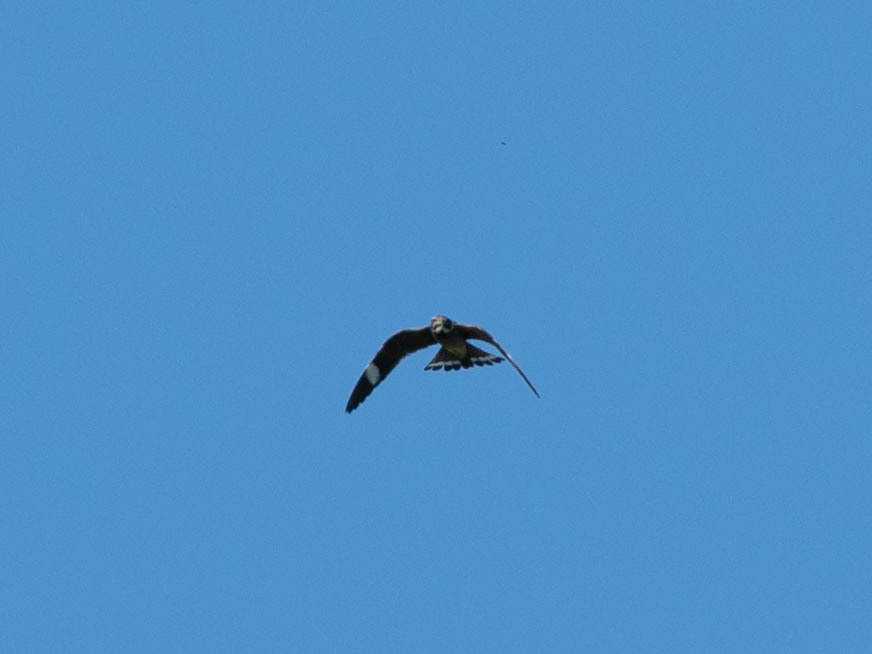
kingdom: Animalia
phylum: Chordata
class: Aves
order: Caprimulgiformes
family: Caprimulgidae
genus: Chordeiles
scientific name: Chordeiles minor
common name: Common nighthawk
